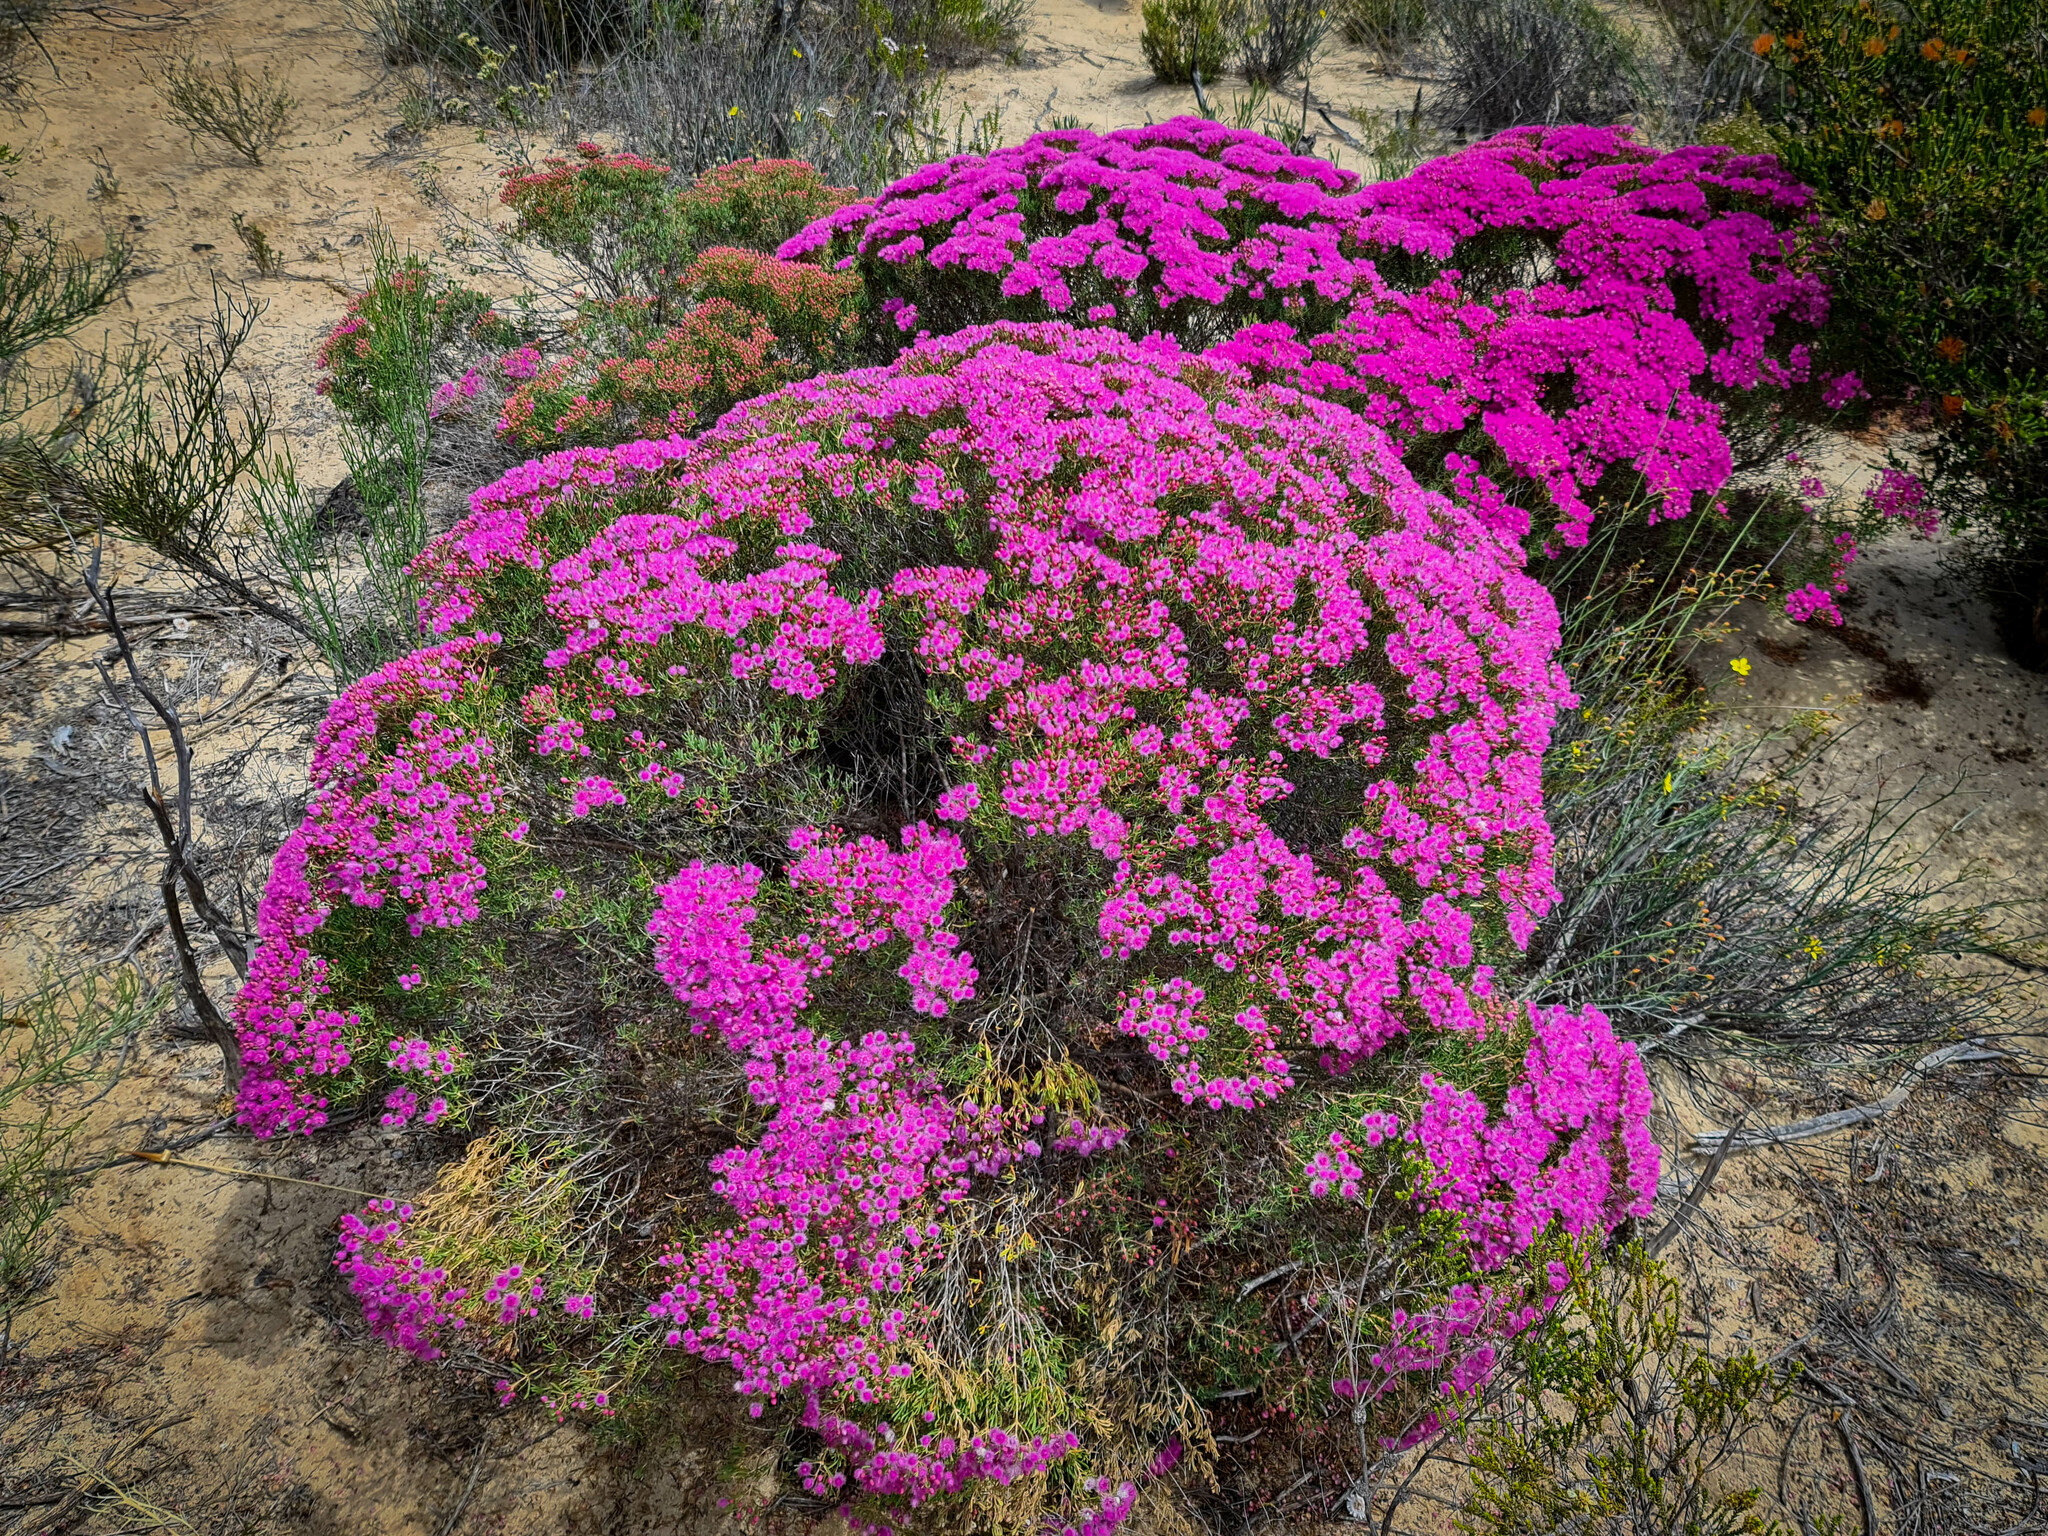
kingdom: Plantae
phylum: Tracheophyta
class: Magnoliopsida
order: Myrtales
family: Myrtaceae
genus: Verticordia
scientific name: Verticordia monadelpha
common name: Woolly feather-flower
